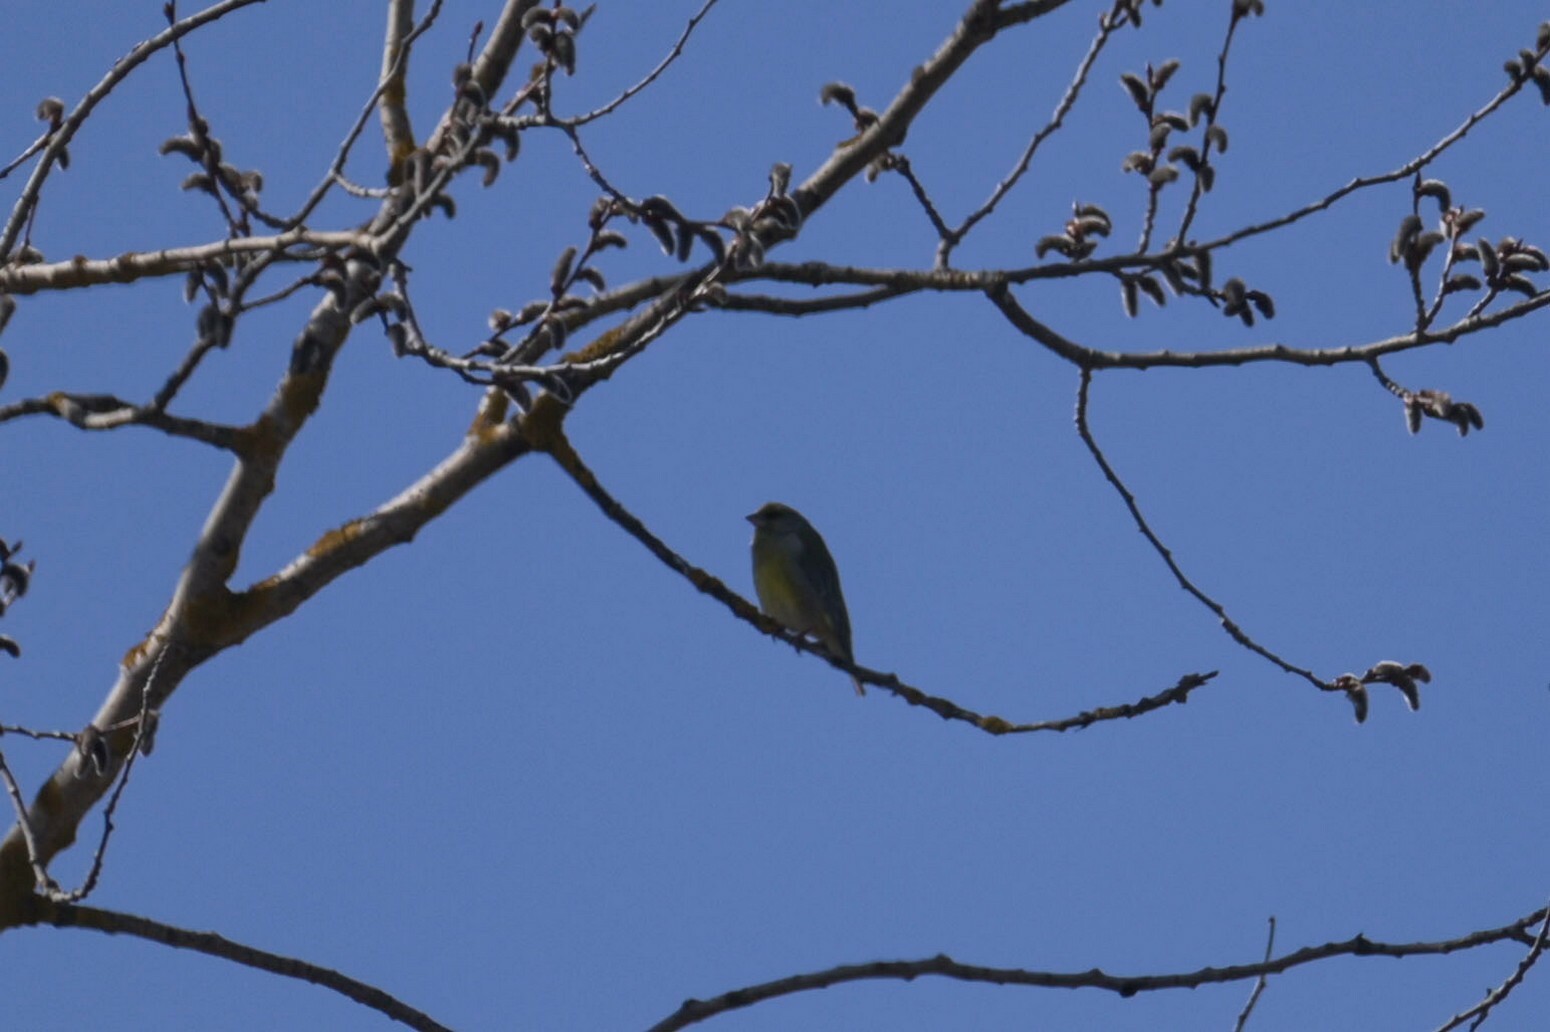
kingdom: Plantae
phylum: Tracheophyta
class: Liliopsida
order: Poales
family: Poaceae
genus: Chloris
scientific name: Chloris chloris
